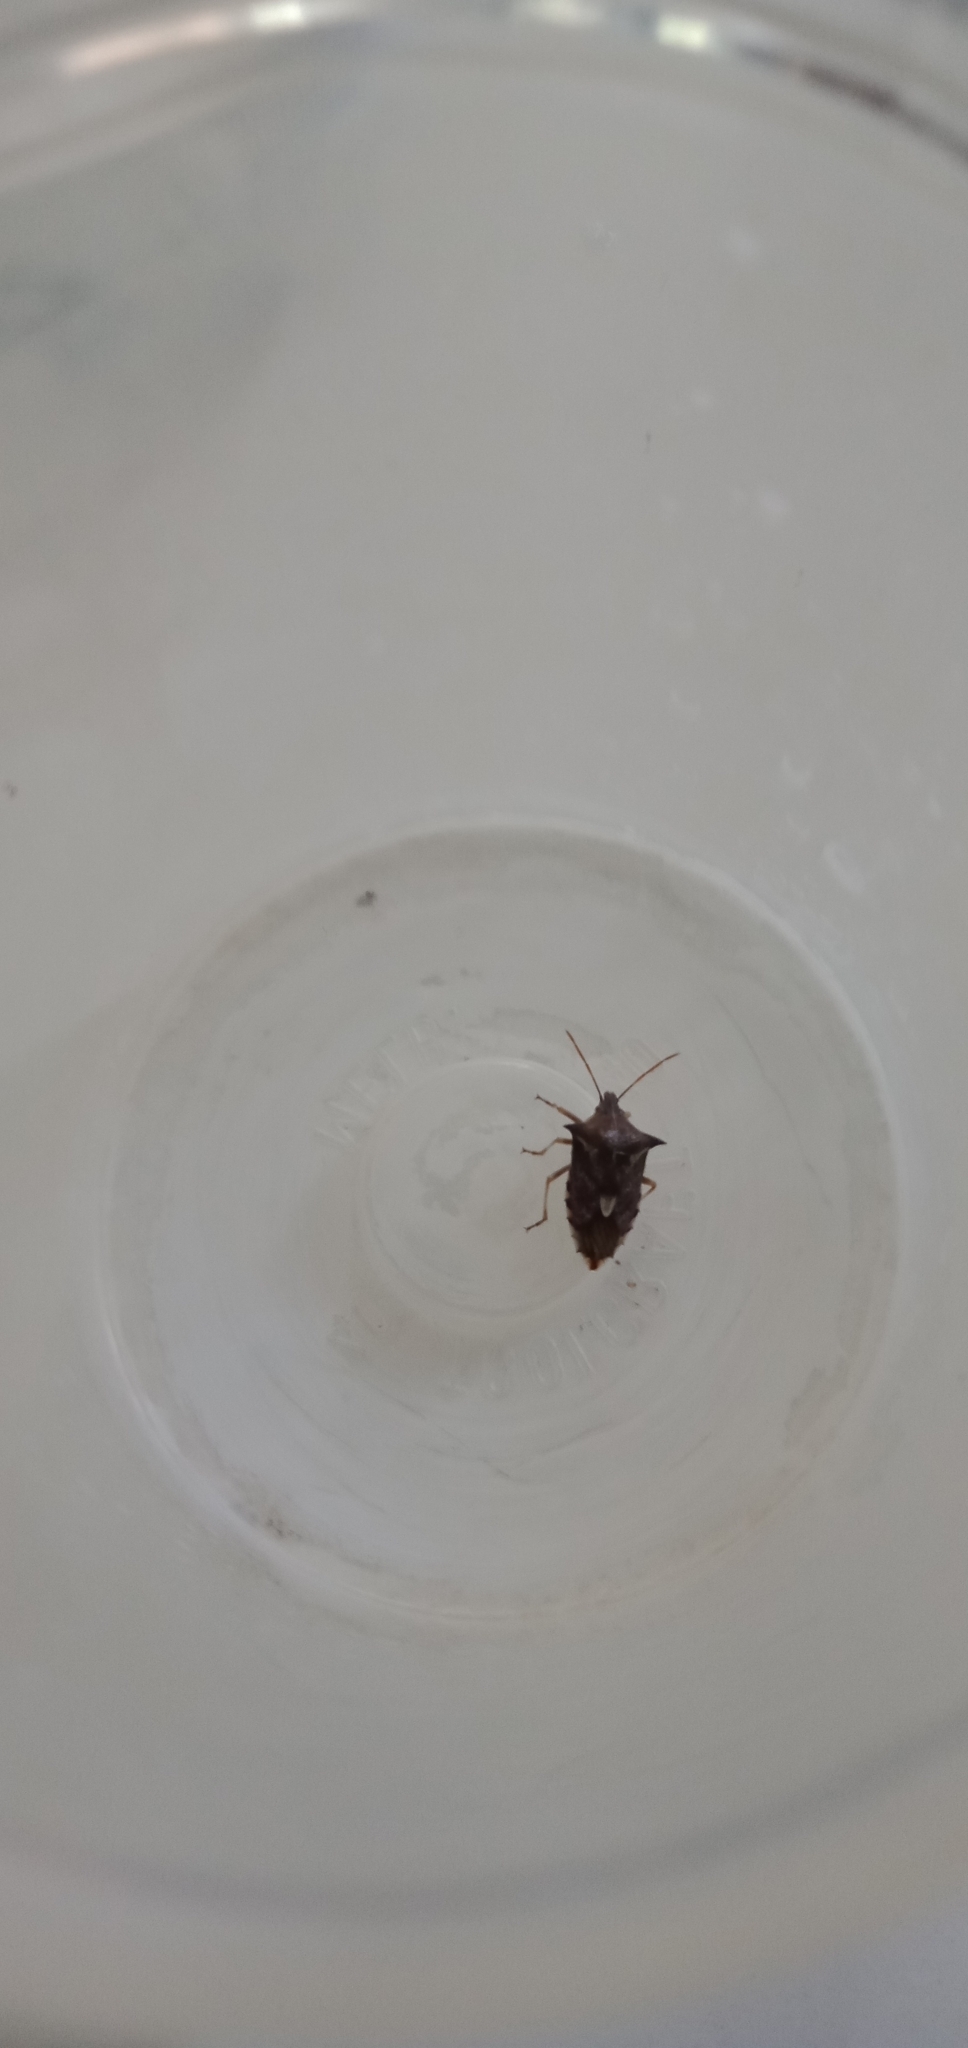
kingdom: Animalia
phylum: Arthropoda
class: Insecta
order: Hemiptera
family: Pentatomidae
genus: Oechalia
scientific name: Oechalia schellenbergii
